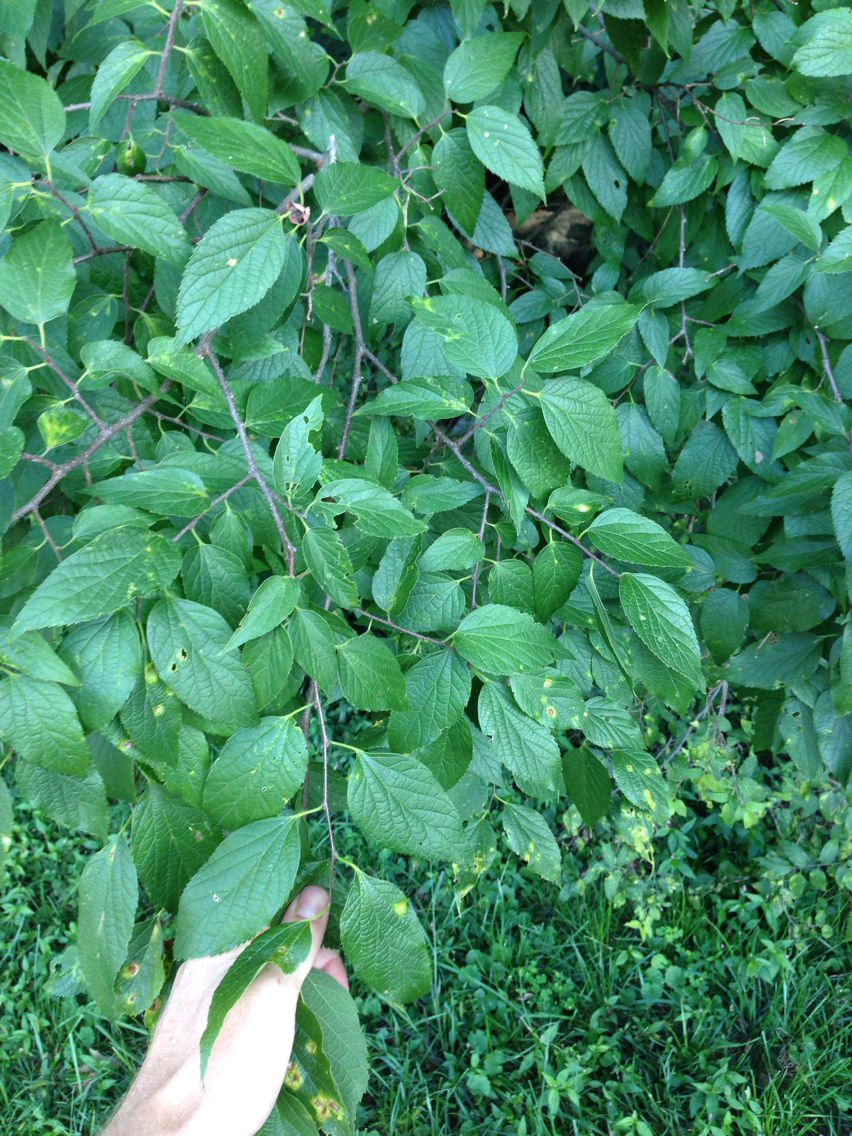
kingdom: Plantae
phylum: Tracheophyta
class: Magnoliopsida
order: Rosales
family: Cannabaceae
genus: Celtis
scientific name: Celtis occidentalis
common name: Common hackberry
